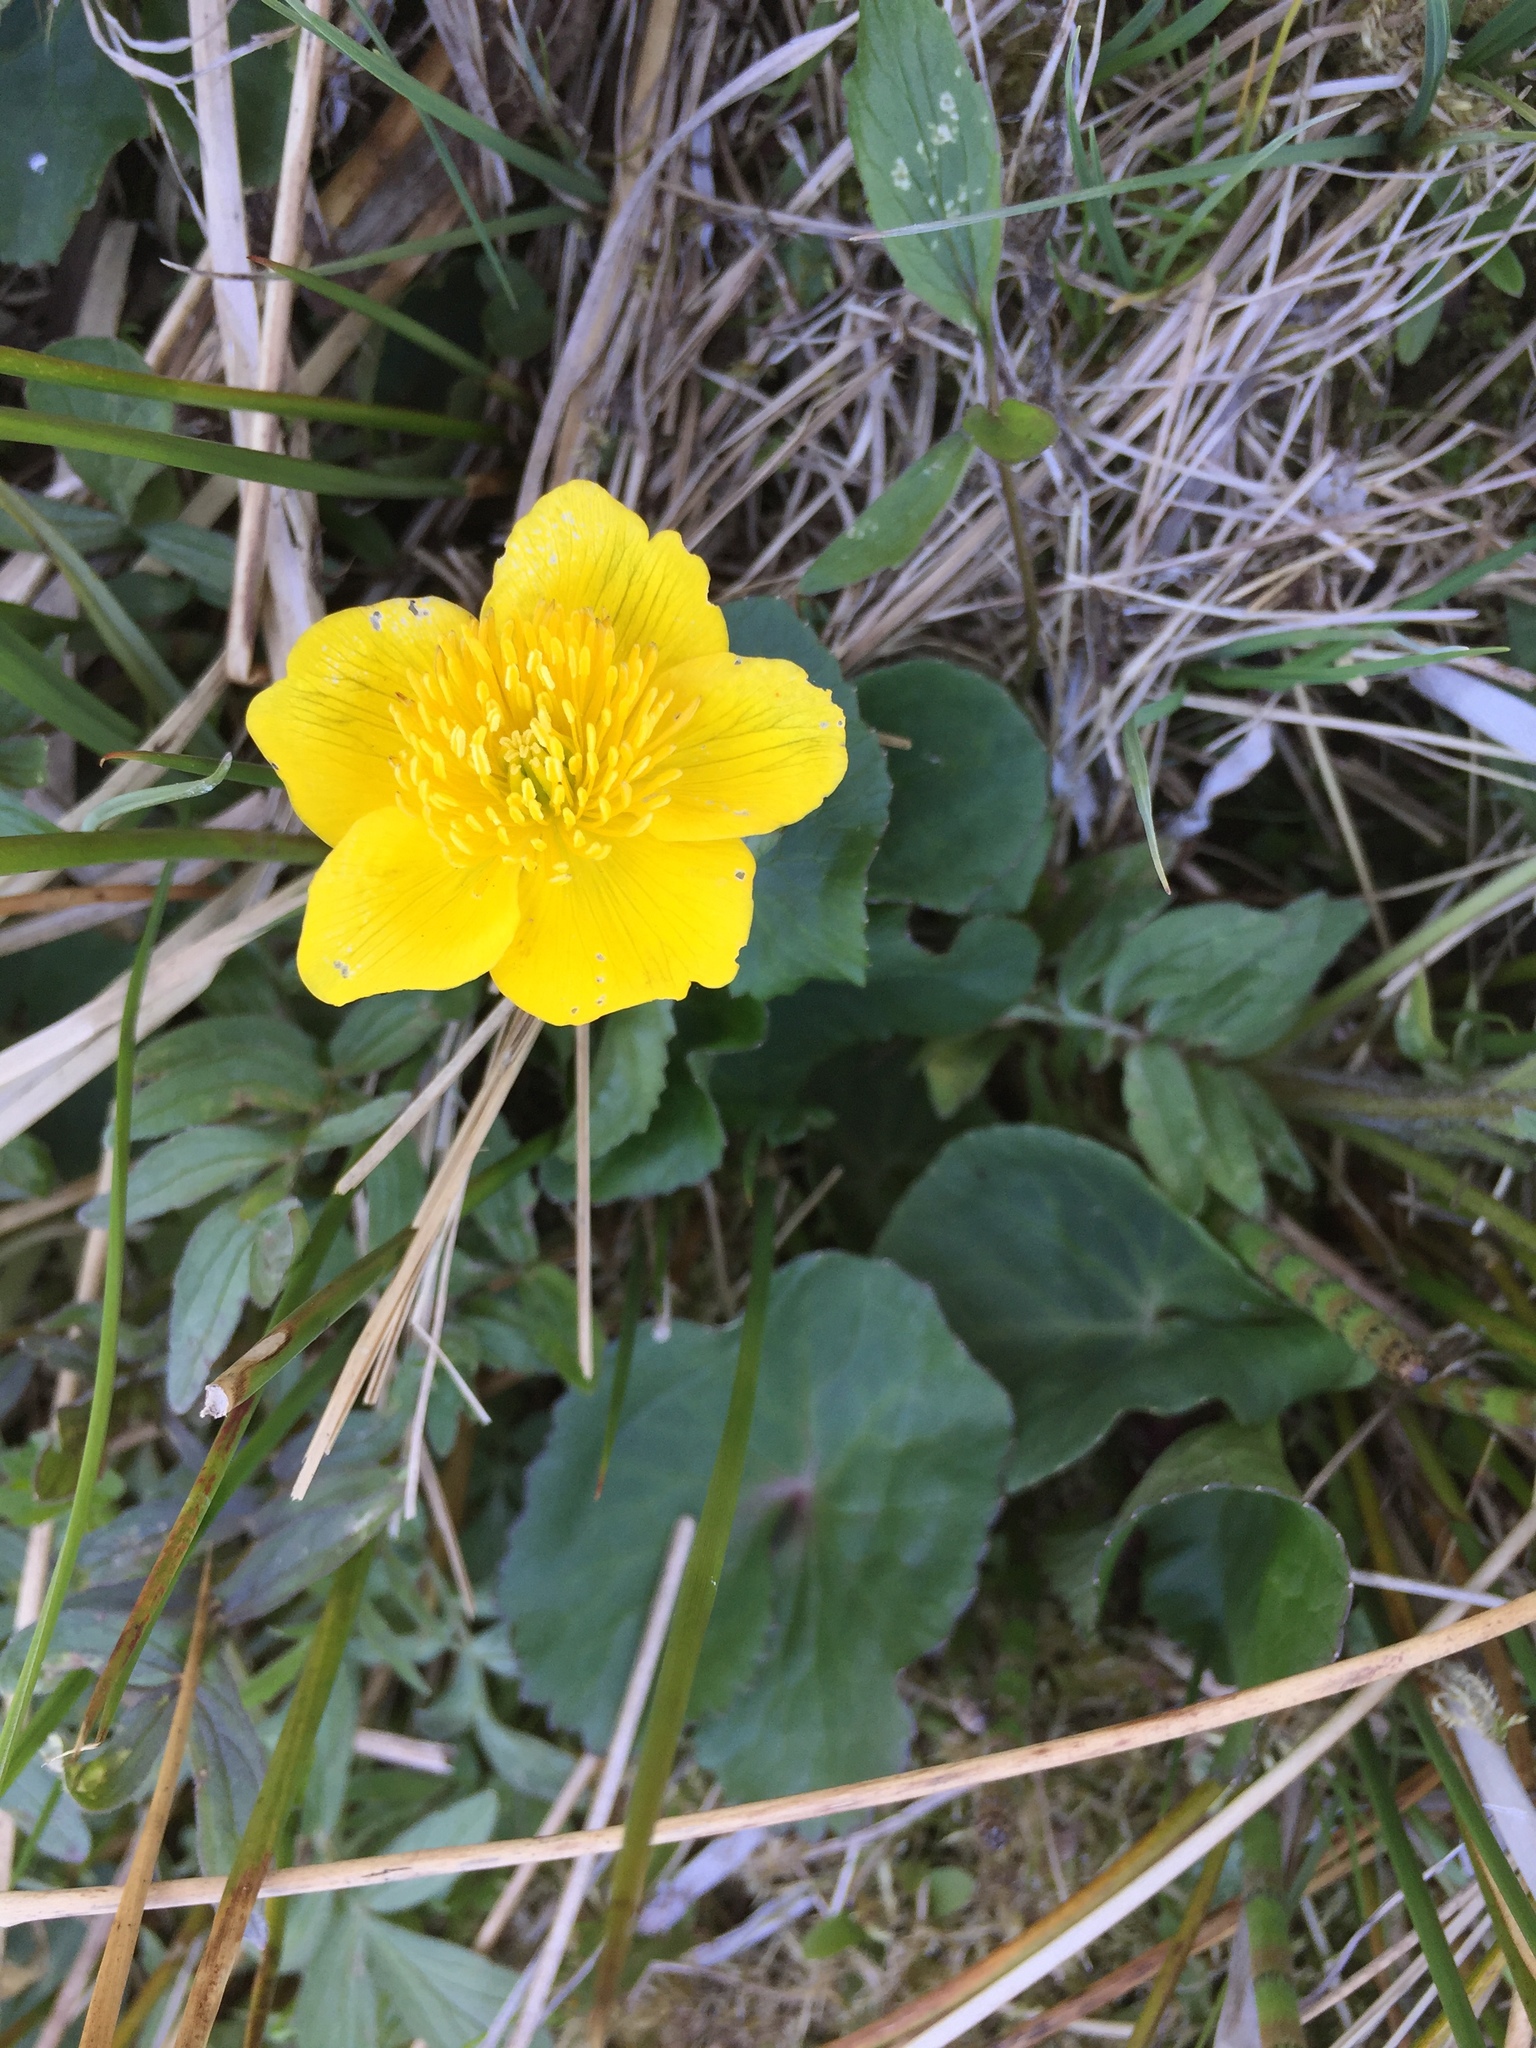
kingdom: Plantae
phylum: Tracheophyta
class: Magnoliopsida
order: Ranunculales
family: Ranunculaceae
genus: Caltha
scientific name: Caltha palustris
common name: Marsh marigold
